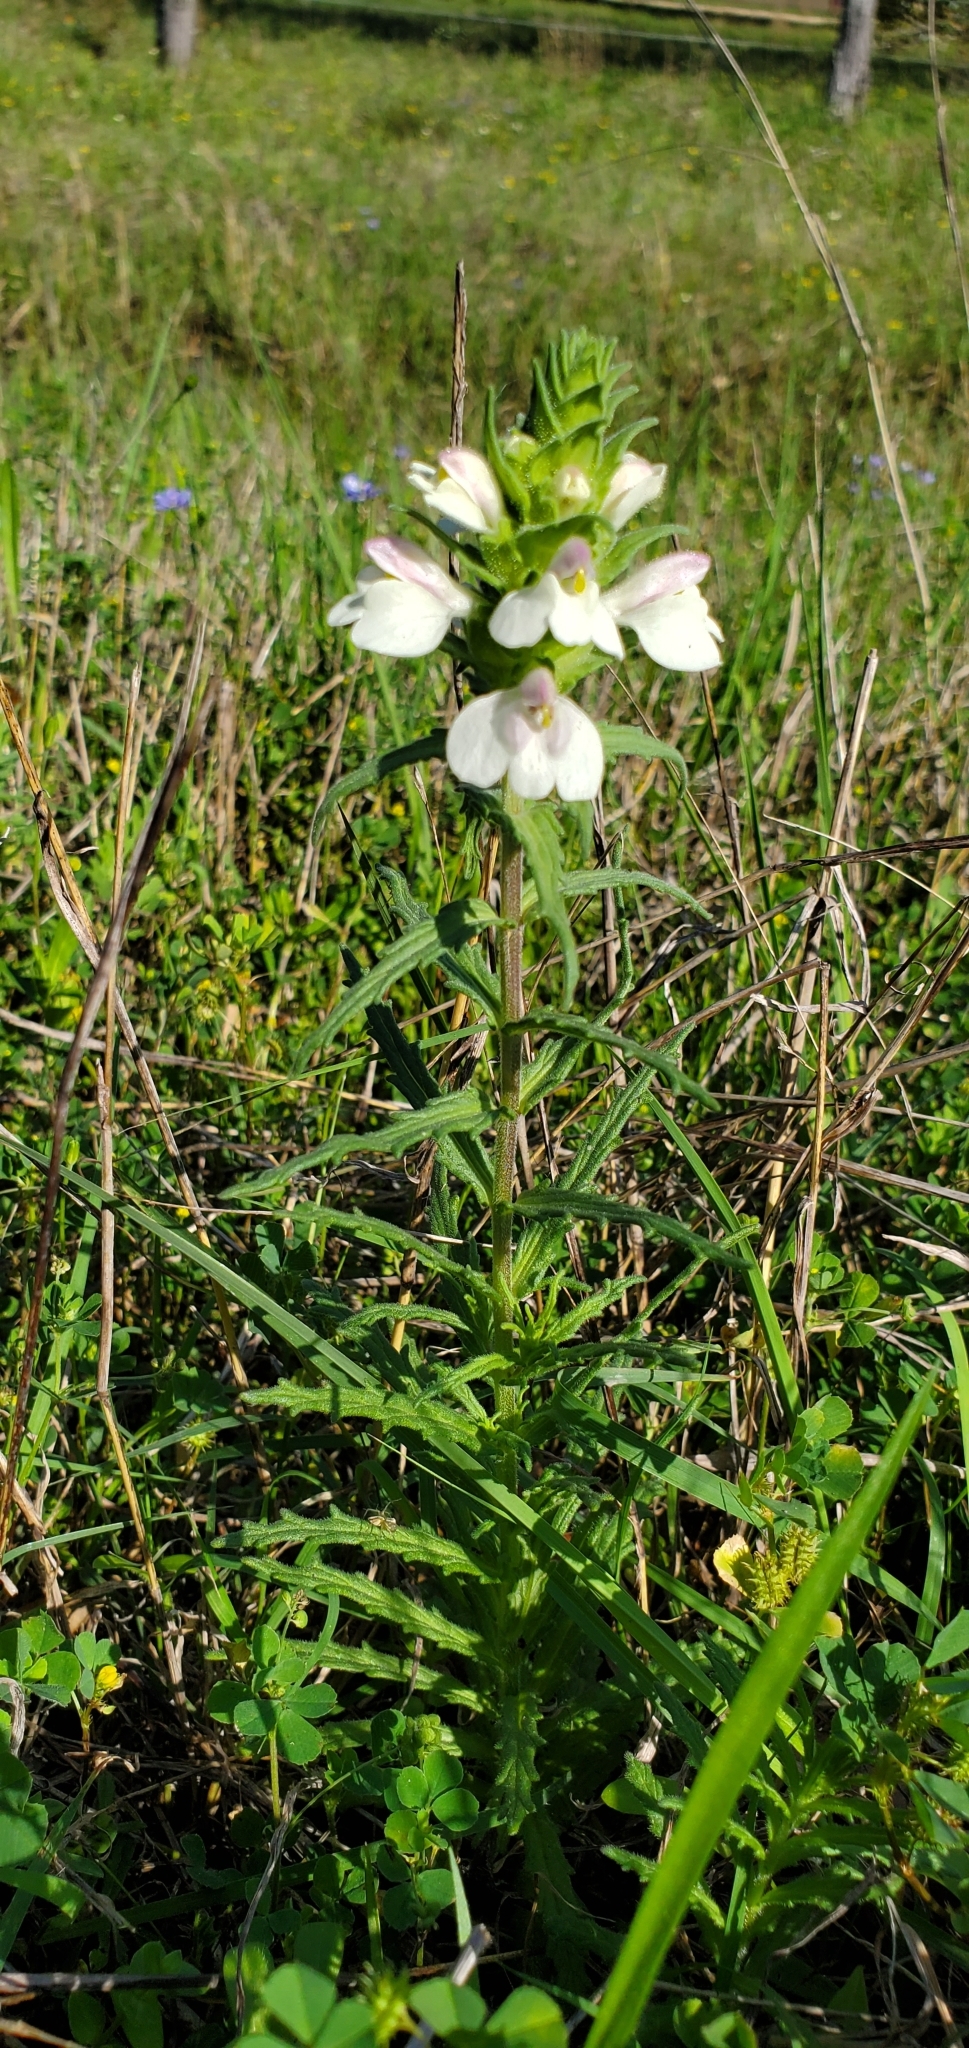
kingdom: Plantae
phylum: Tracheophyta
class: Magnoliopsida
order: Lamiales
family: Orobanchaceae
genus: Bellardia
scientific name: Bellardia trixago
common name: Mediterranean lineseed
